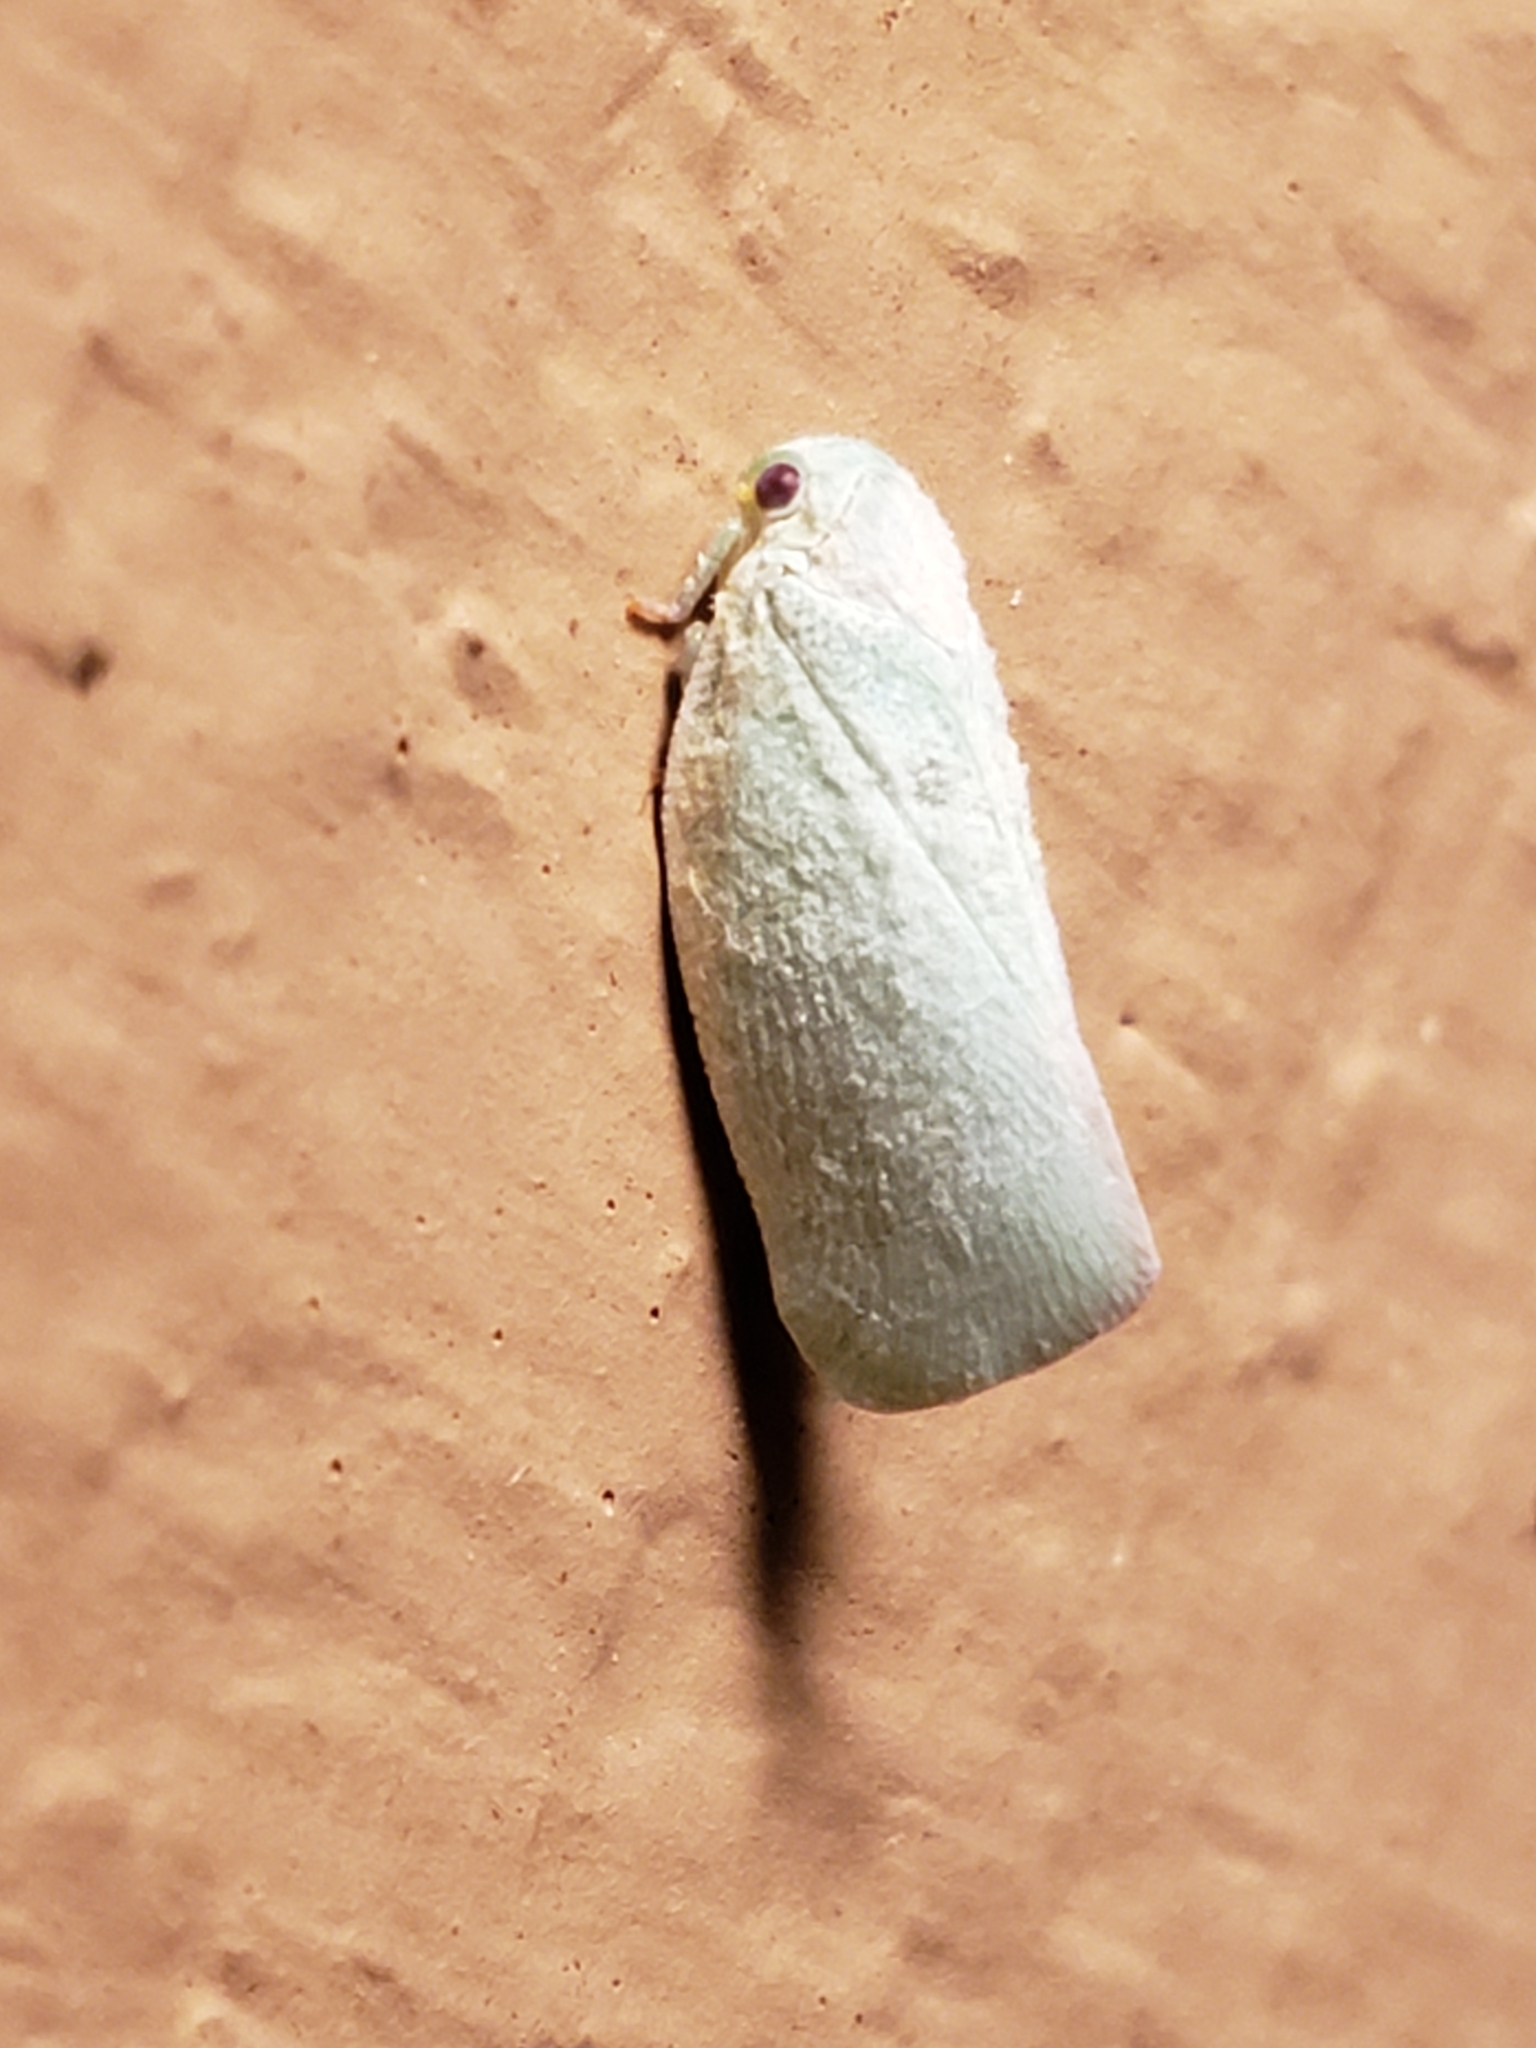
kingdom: Animalia
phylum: Arthropoda
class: Insecta
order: Hemiptera
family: Flatidae
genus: Flatormenis
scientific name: Flatormenis proxima
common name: Northern flatid planthopper
